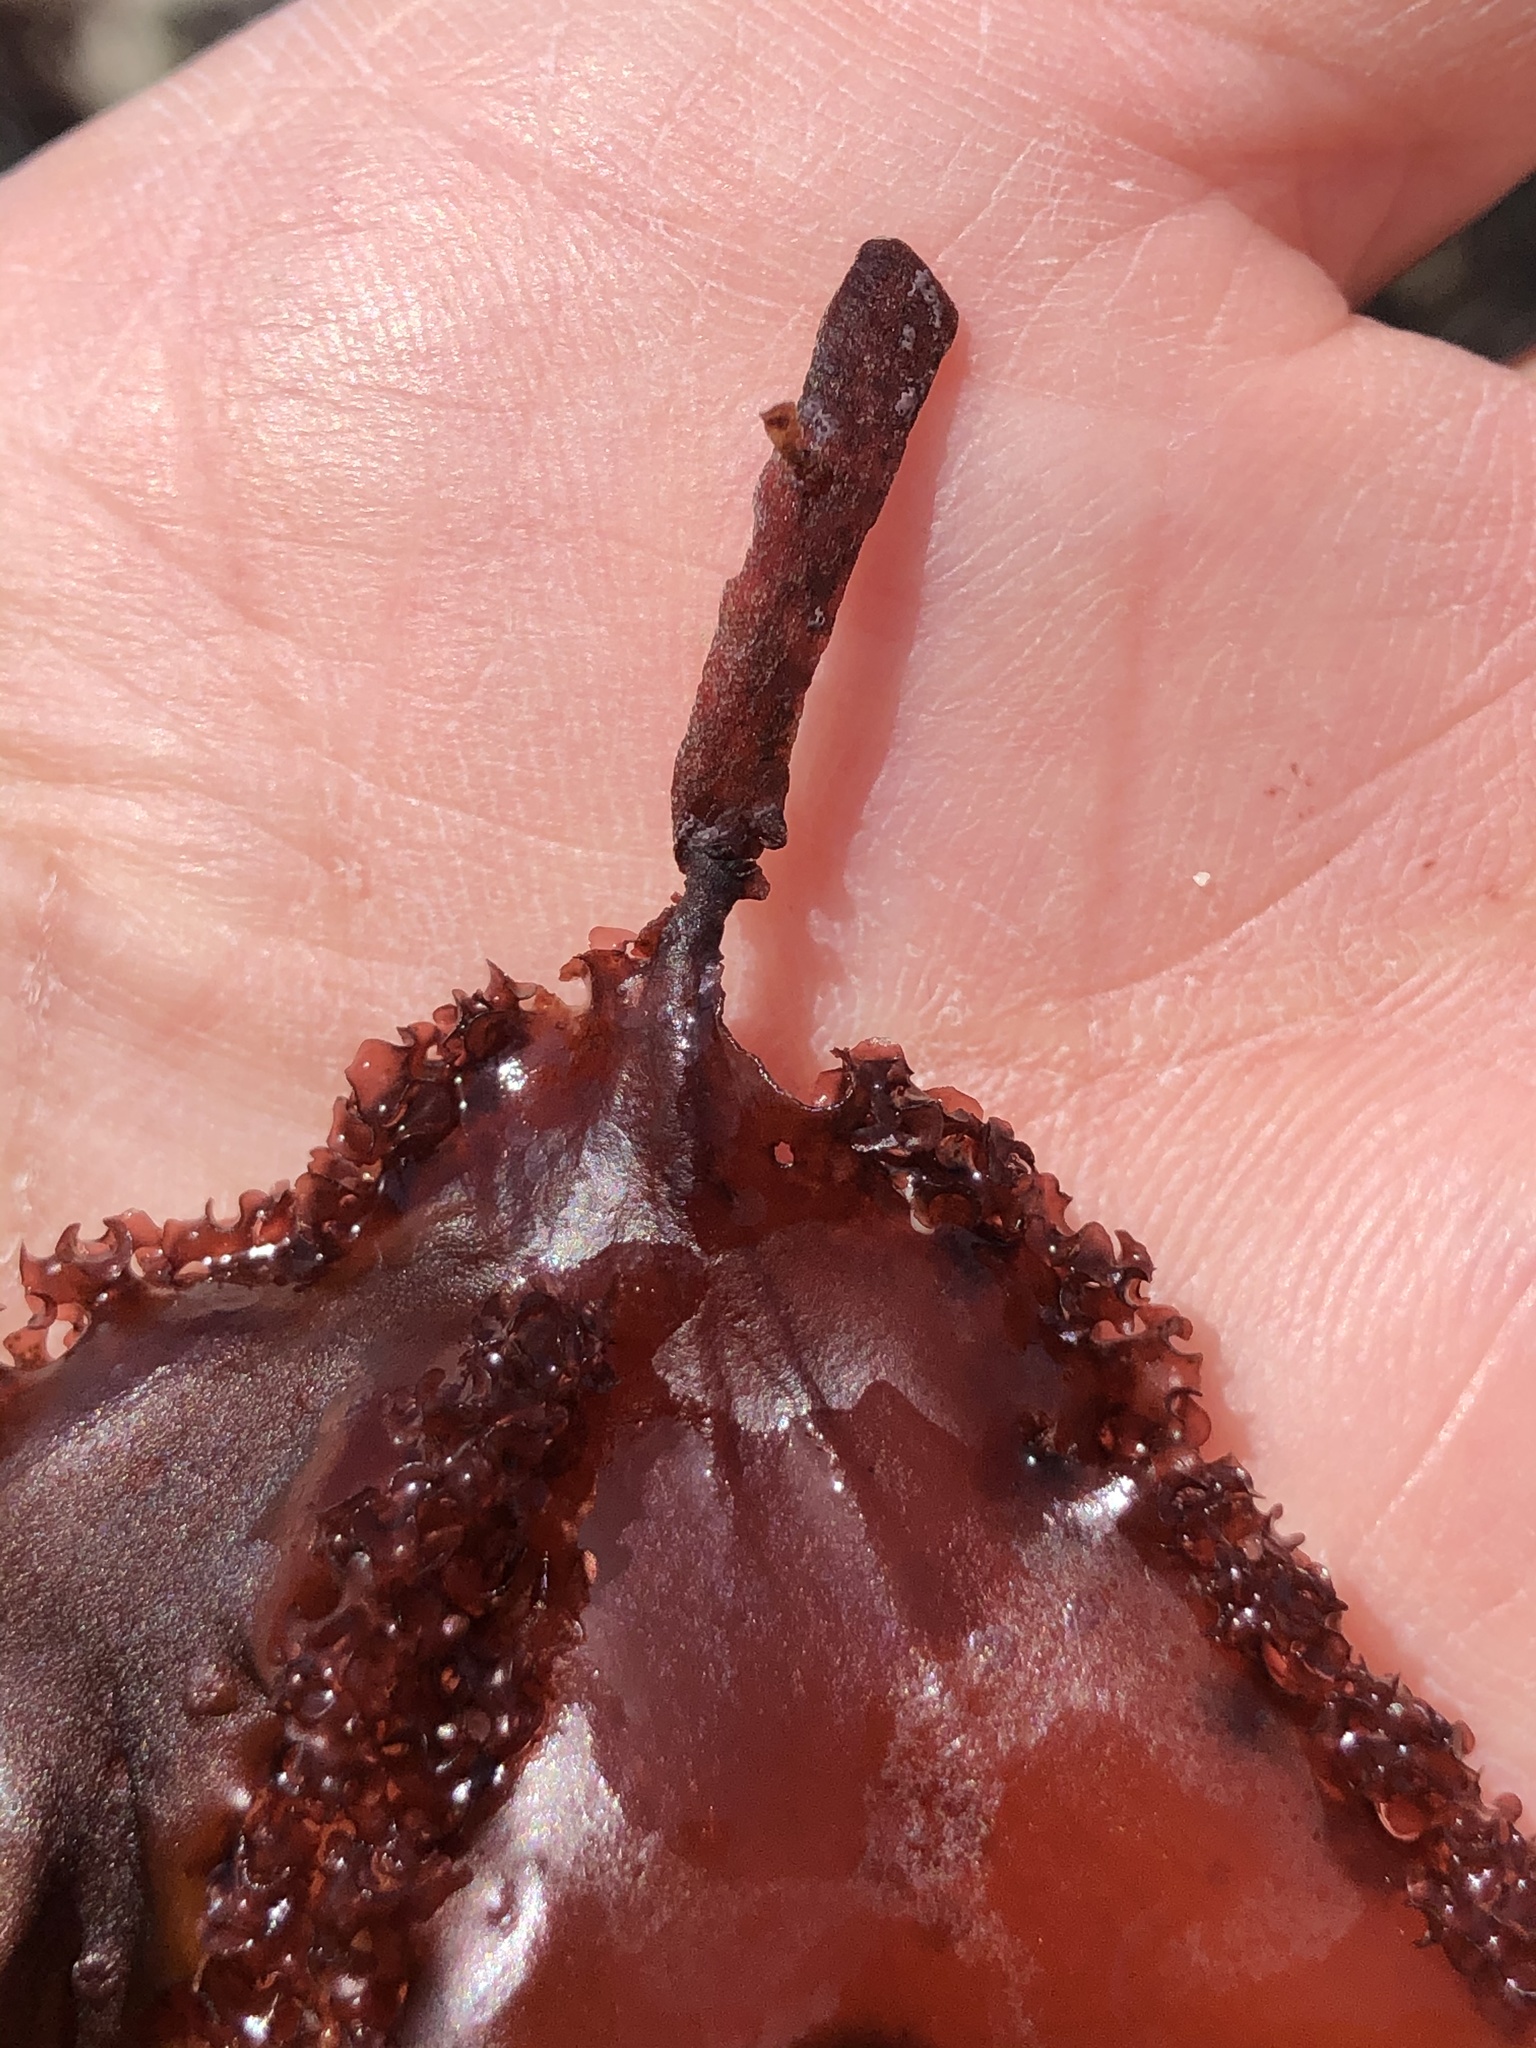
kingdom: Plantae
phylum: Rhodophyta
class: Florideophyceae
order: Ceramiales
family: Delesseriaceae
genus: Cryptopleura
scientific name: Cryptopleura ruprechtiana
